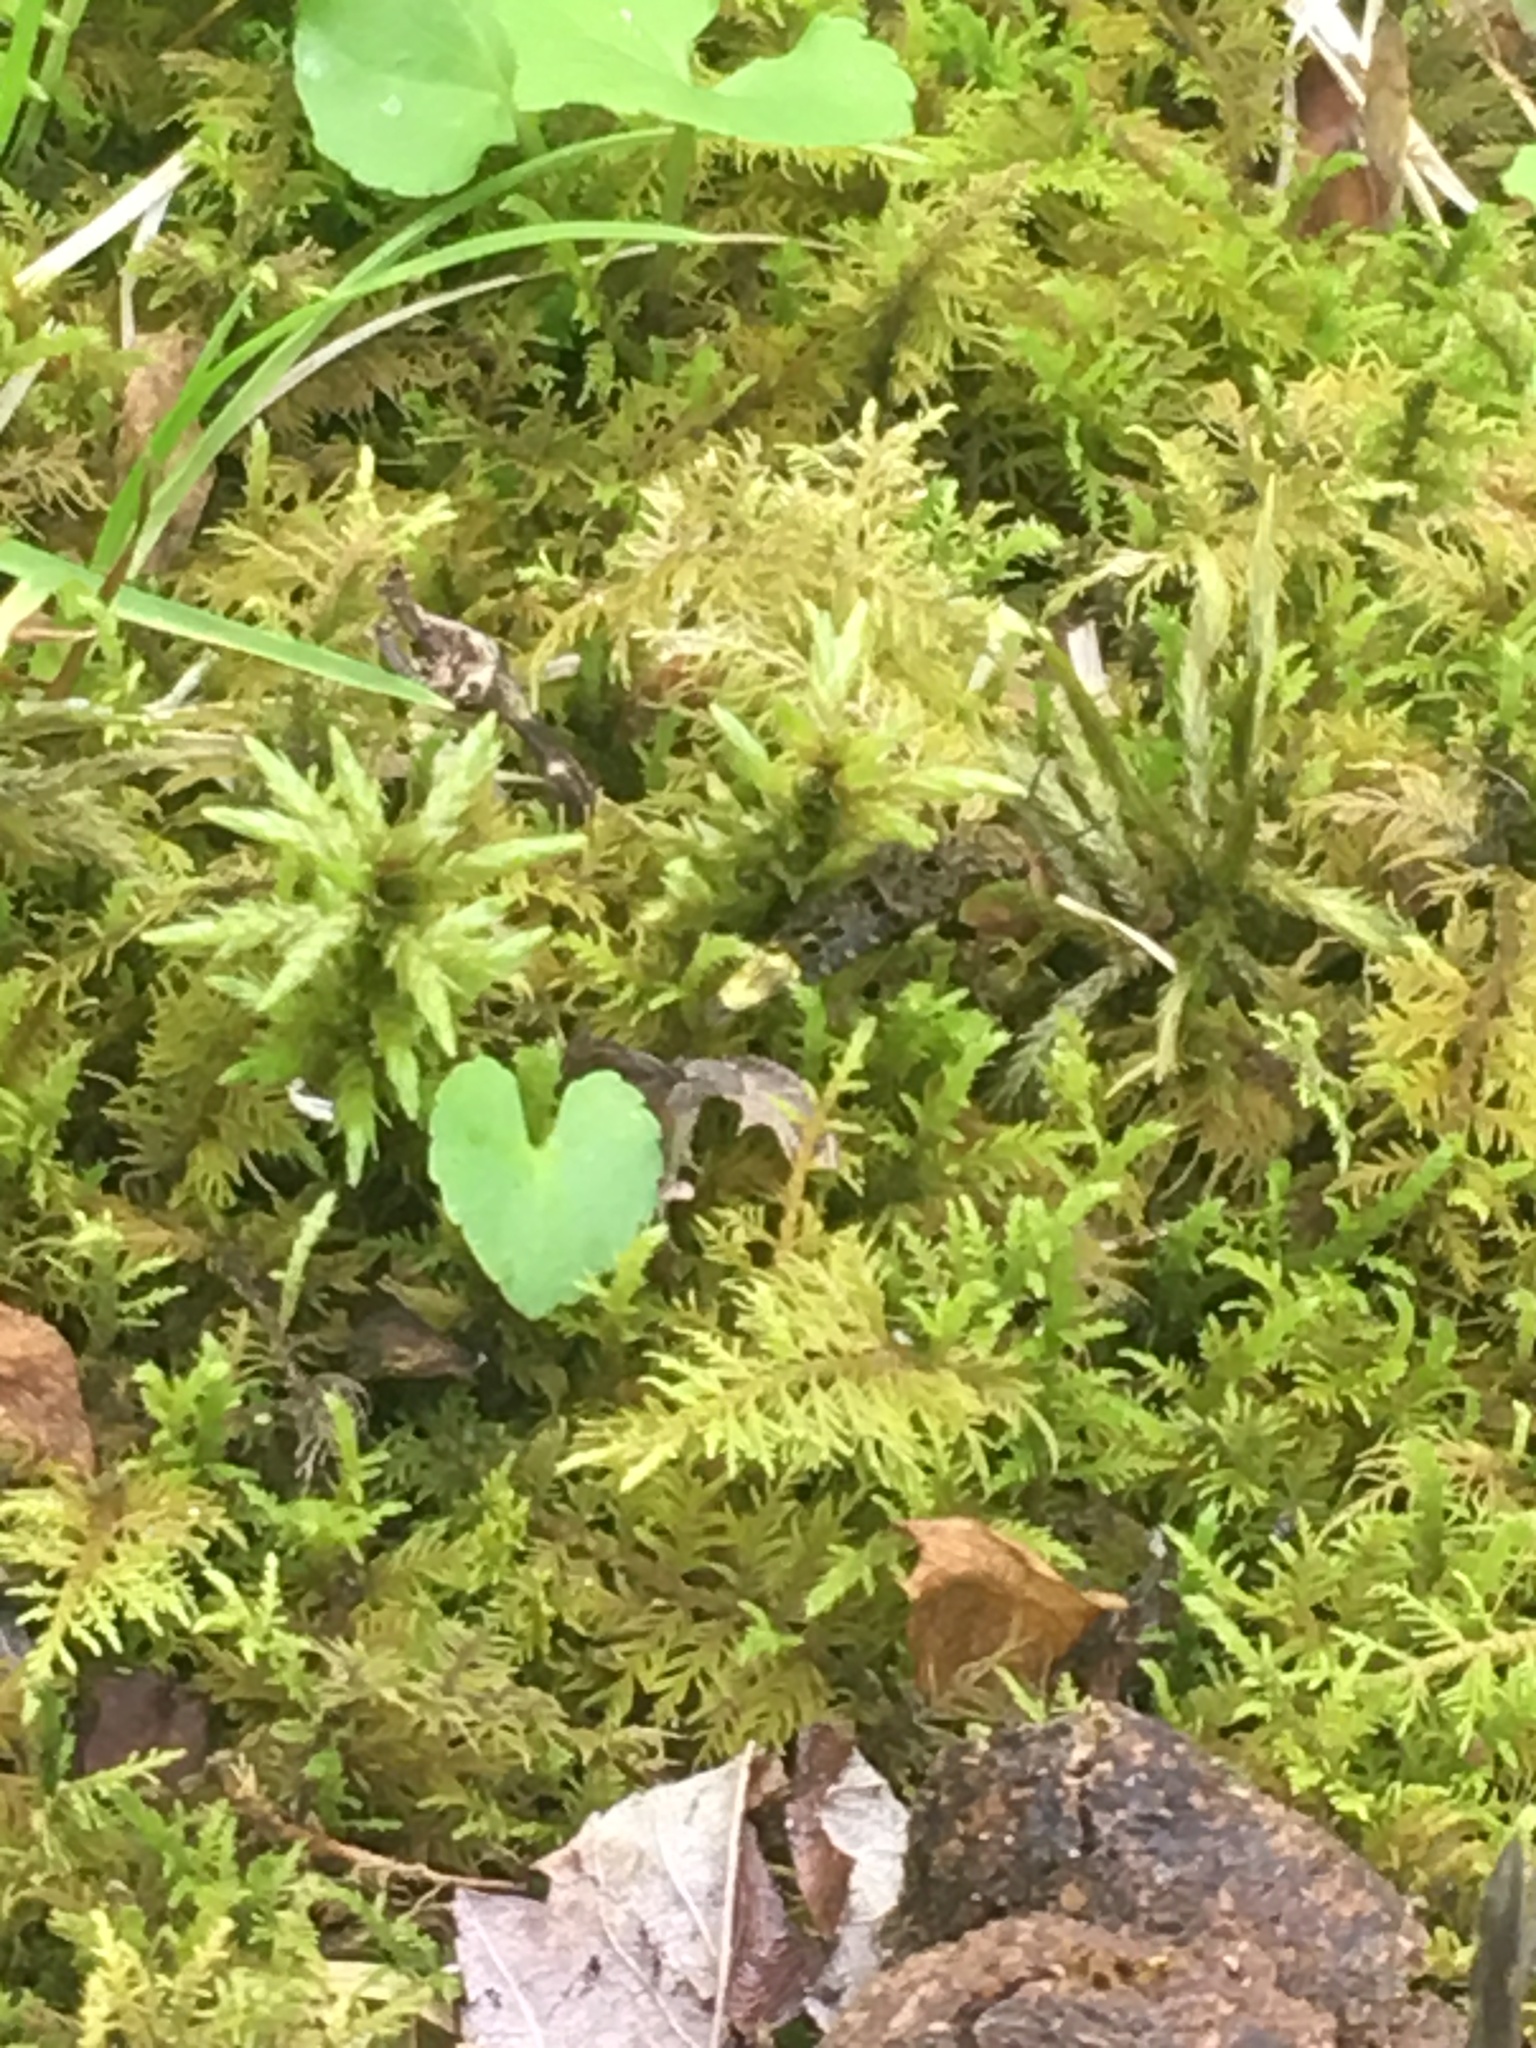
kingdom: Animalia
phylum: Arthropoda
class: Insecta
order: Coleoptera
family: Staphylinidae
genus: Ontholestes
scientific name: Ontholestes cingulatus
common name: Gold-and-brown rove beetle
